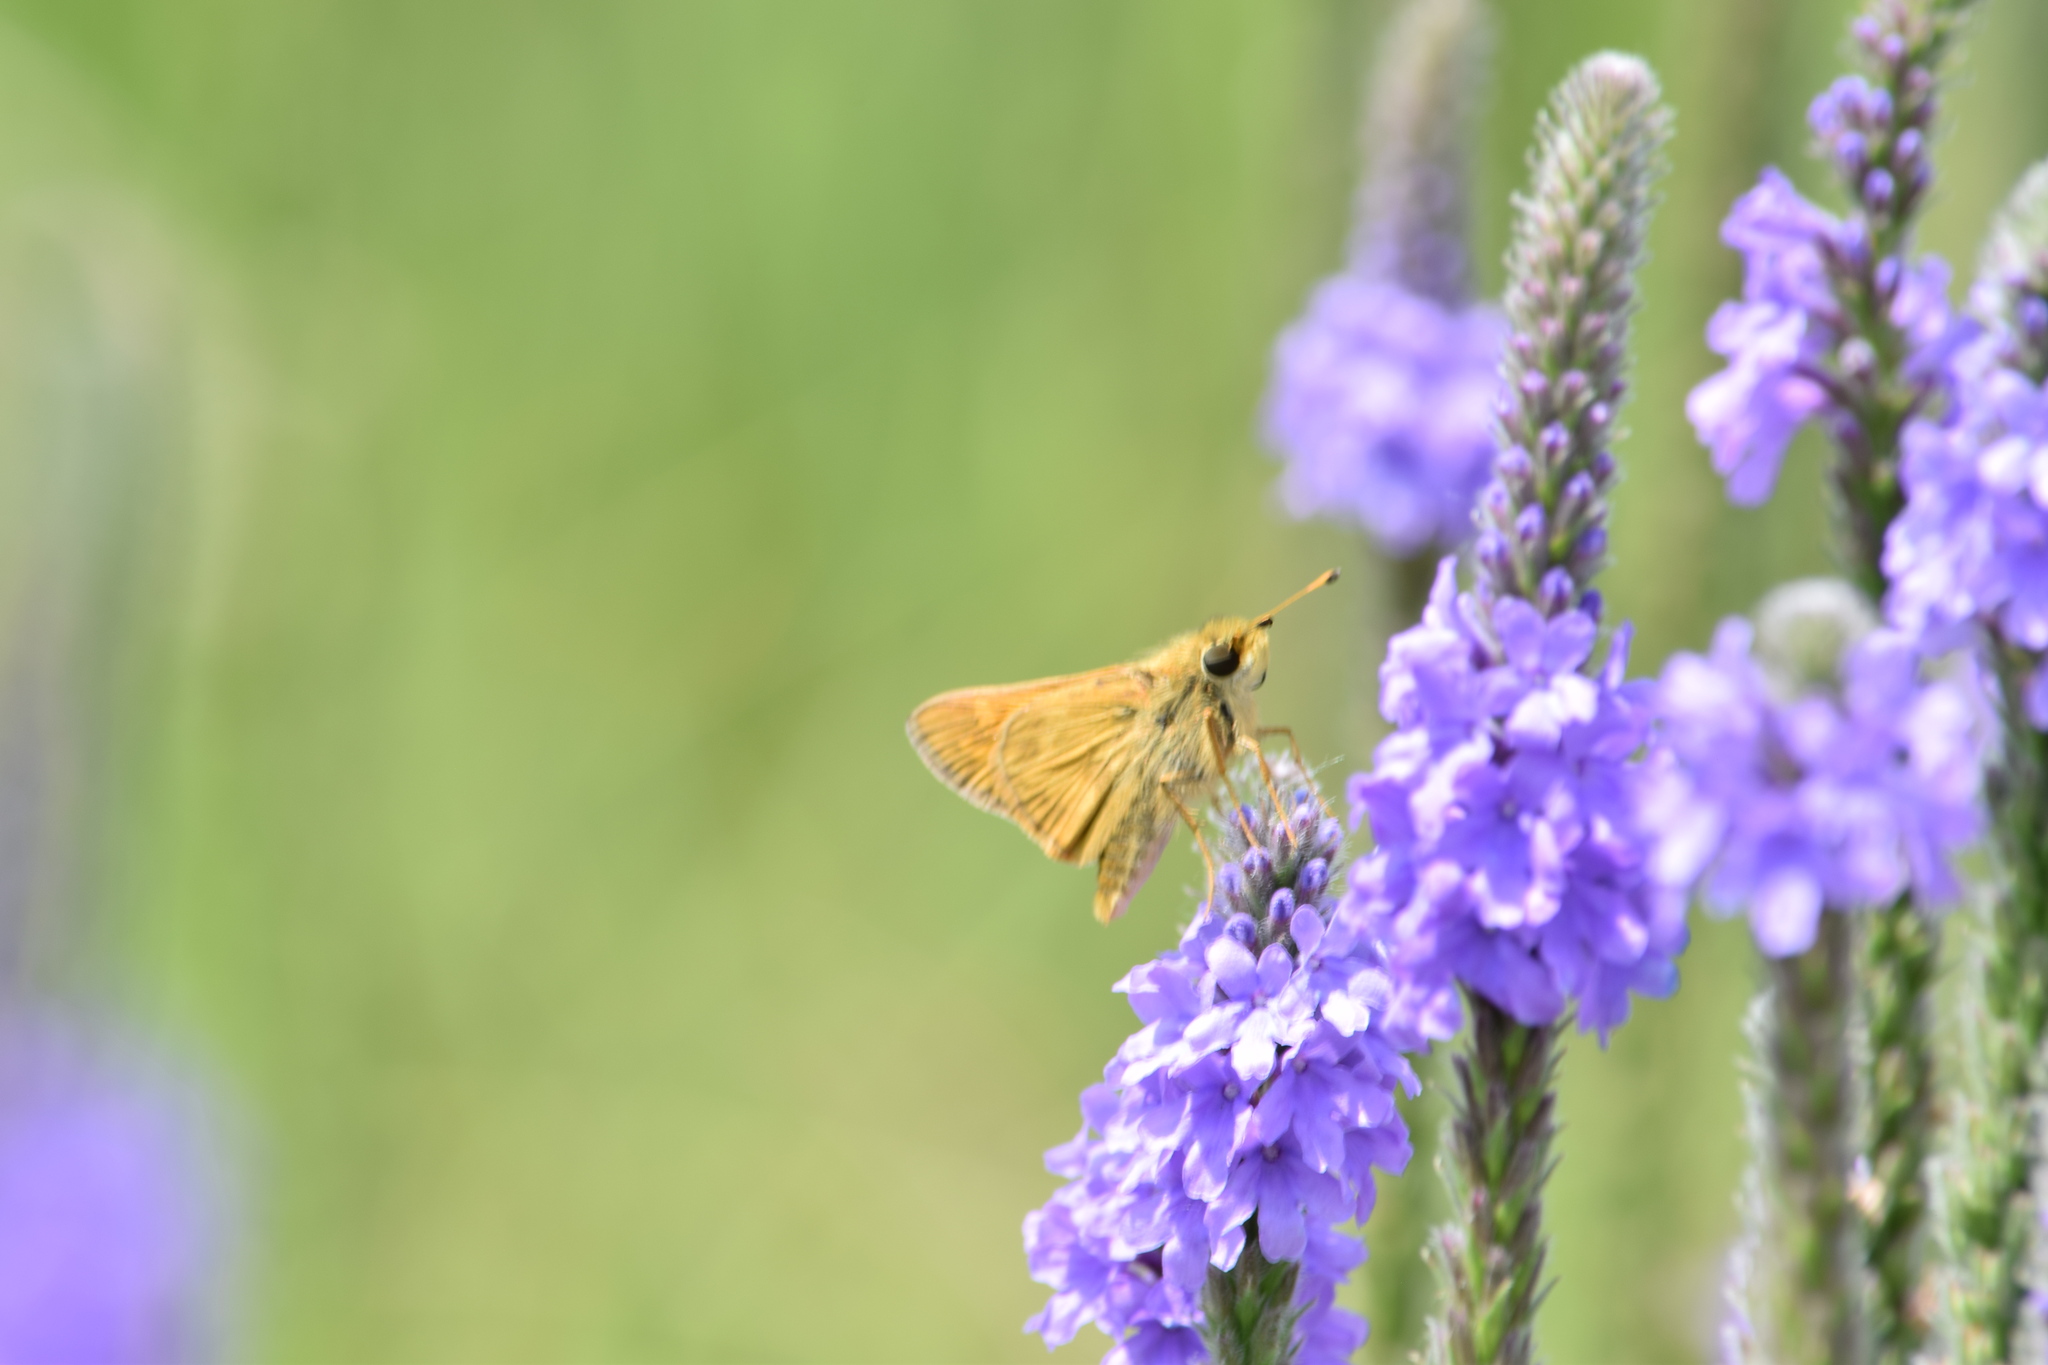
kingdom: Animalia
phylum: Arthropoda
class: Insecta
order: Lepidoptera
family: Hesperiidae
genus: Atalopedes
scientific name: Atalopedes
